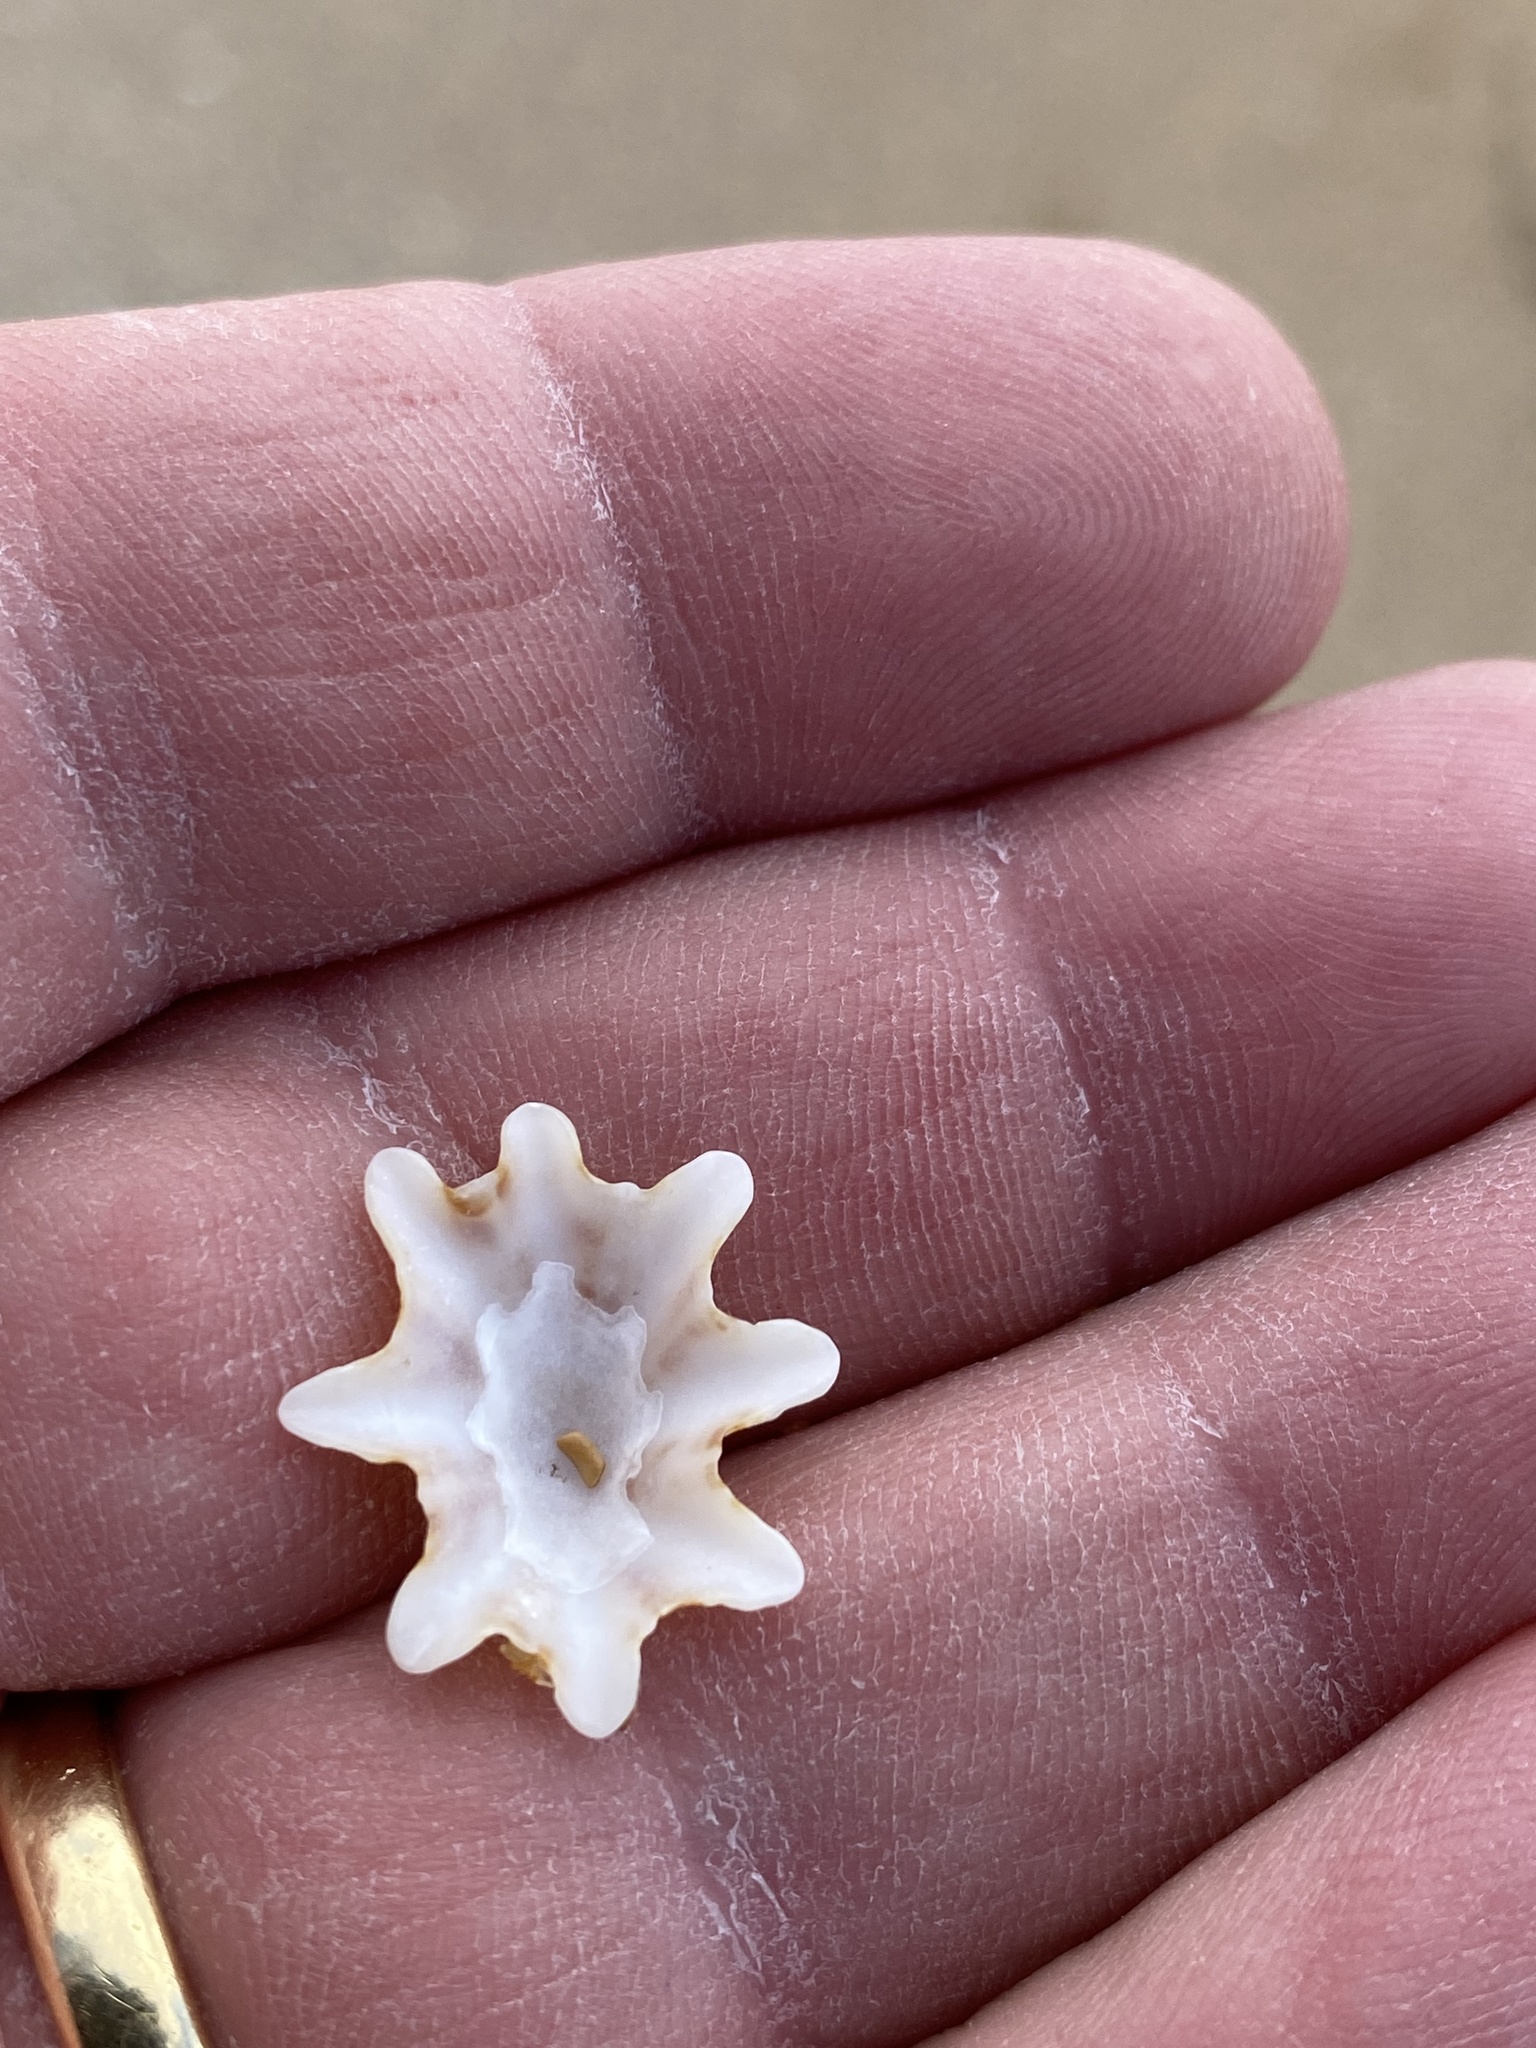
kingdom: Animalia
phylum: Mollusca
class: Gastropoda
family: Patellidae
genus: Scutellastra
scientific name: Scutellastra chapmani
